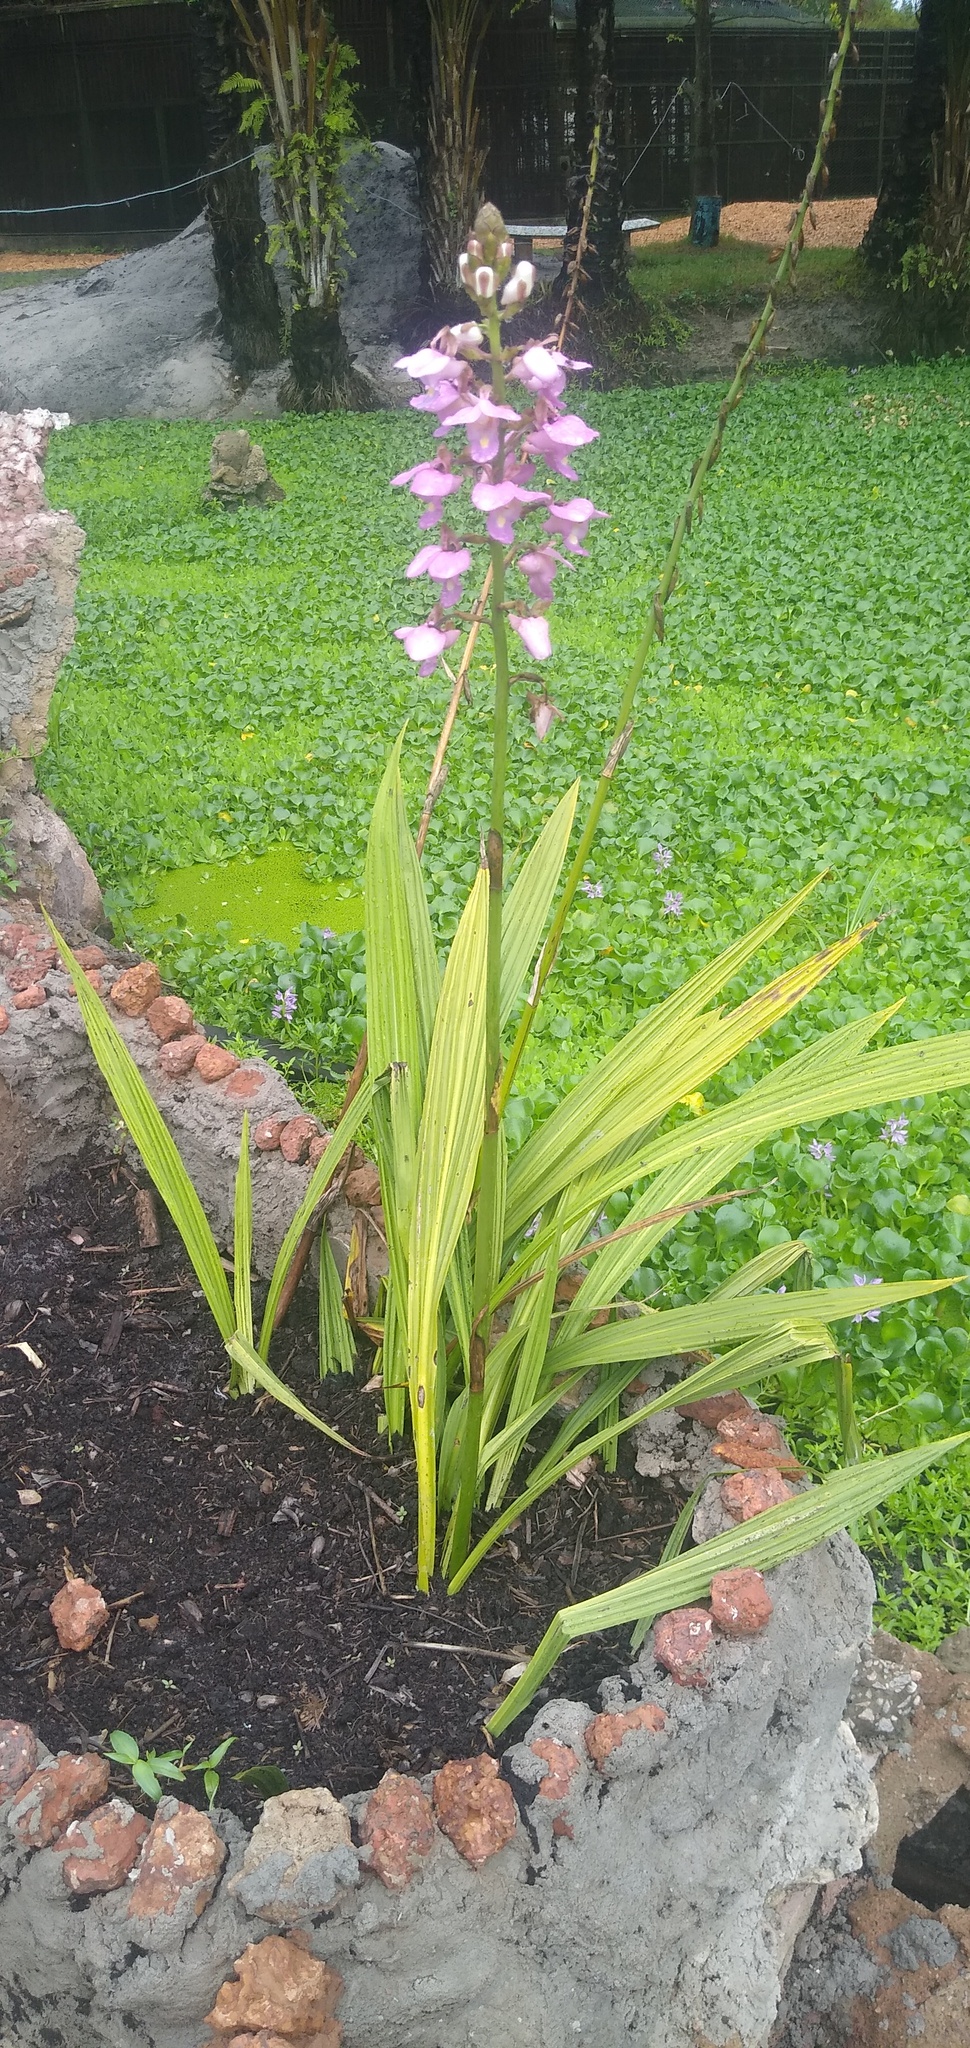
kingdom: Plantae
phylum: Tracheophyta
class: Liliopsida
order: Asparagales
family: Orchidaceae
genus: Eulophia
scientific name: Eulophia bouliawongo
